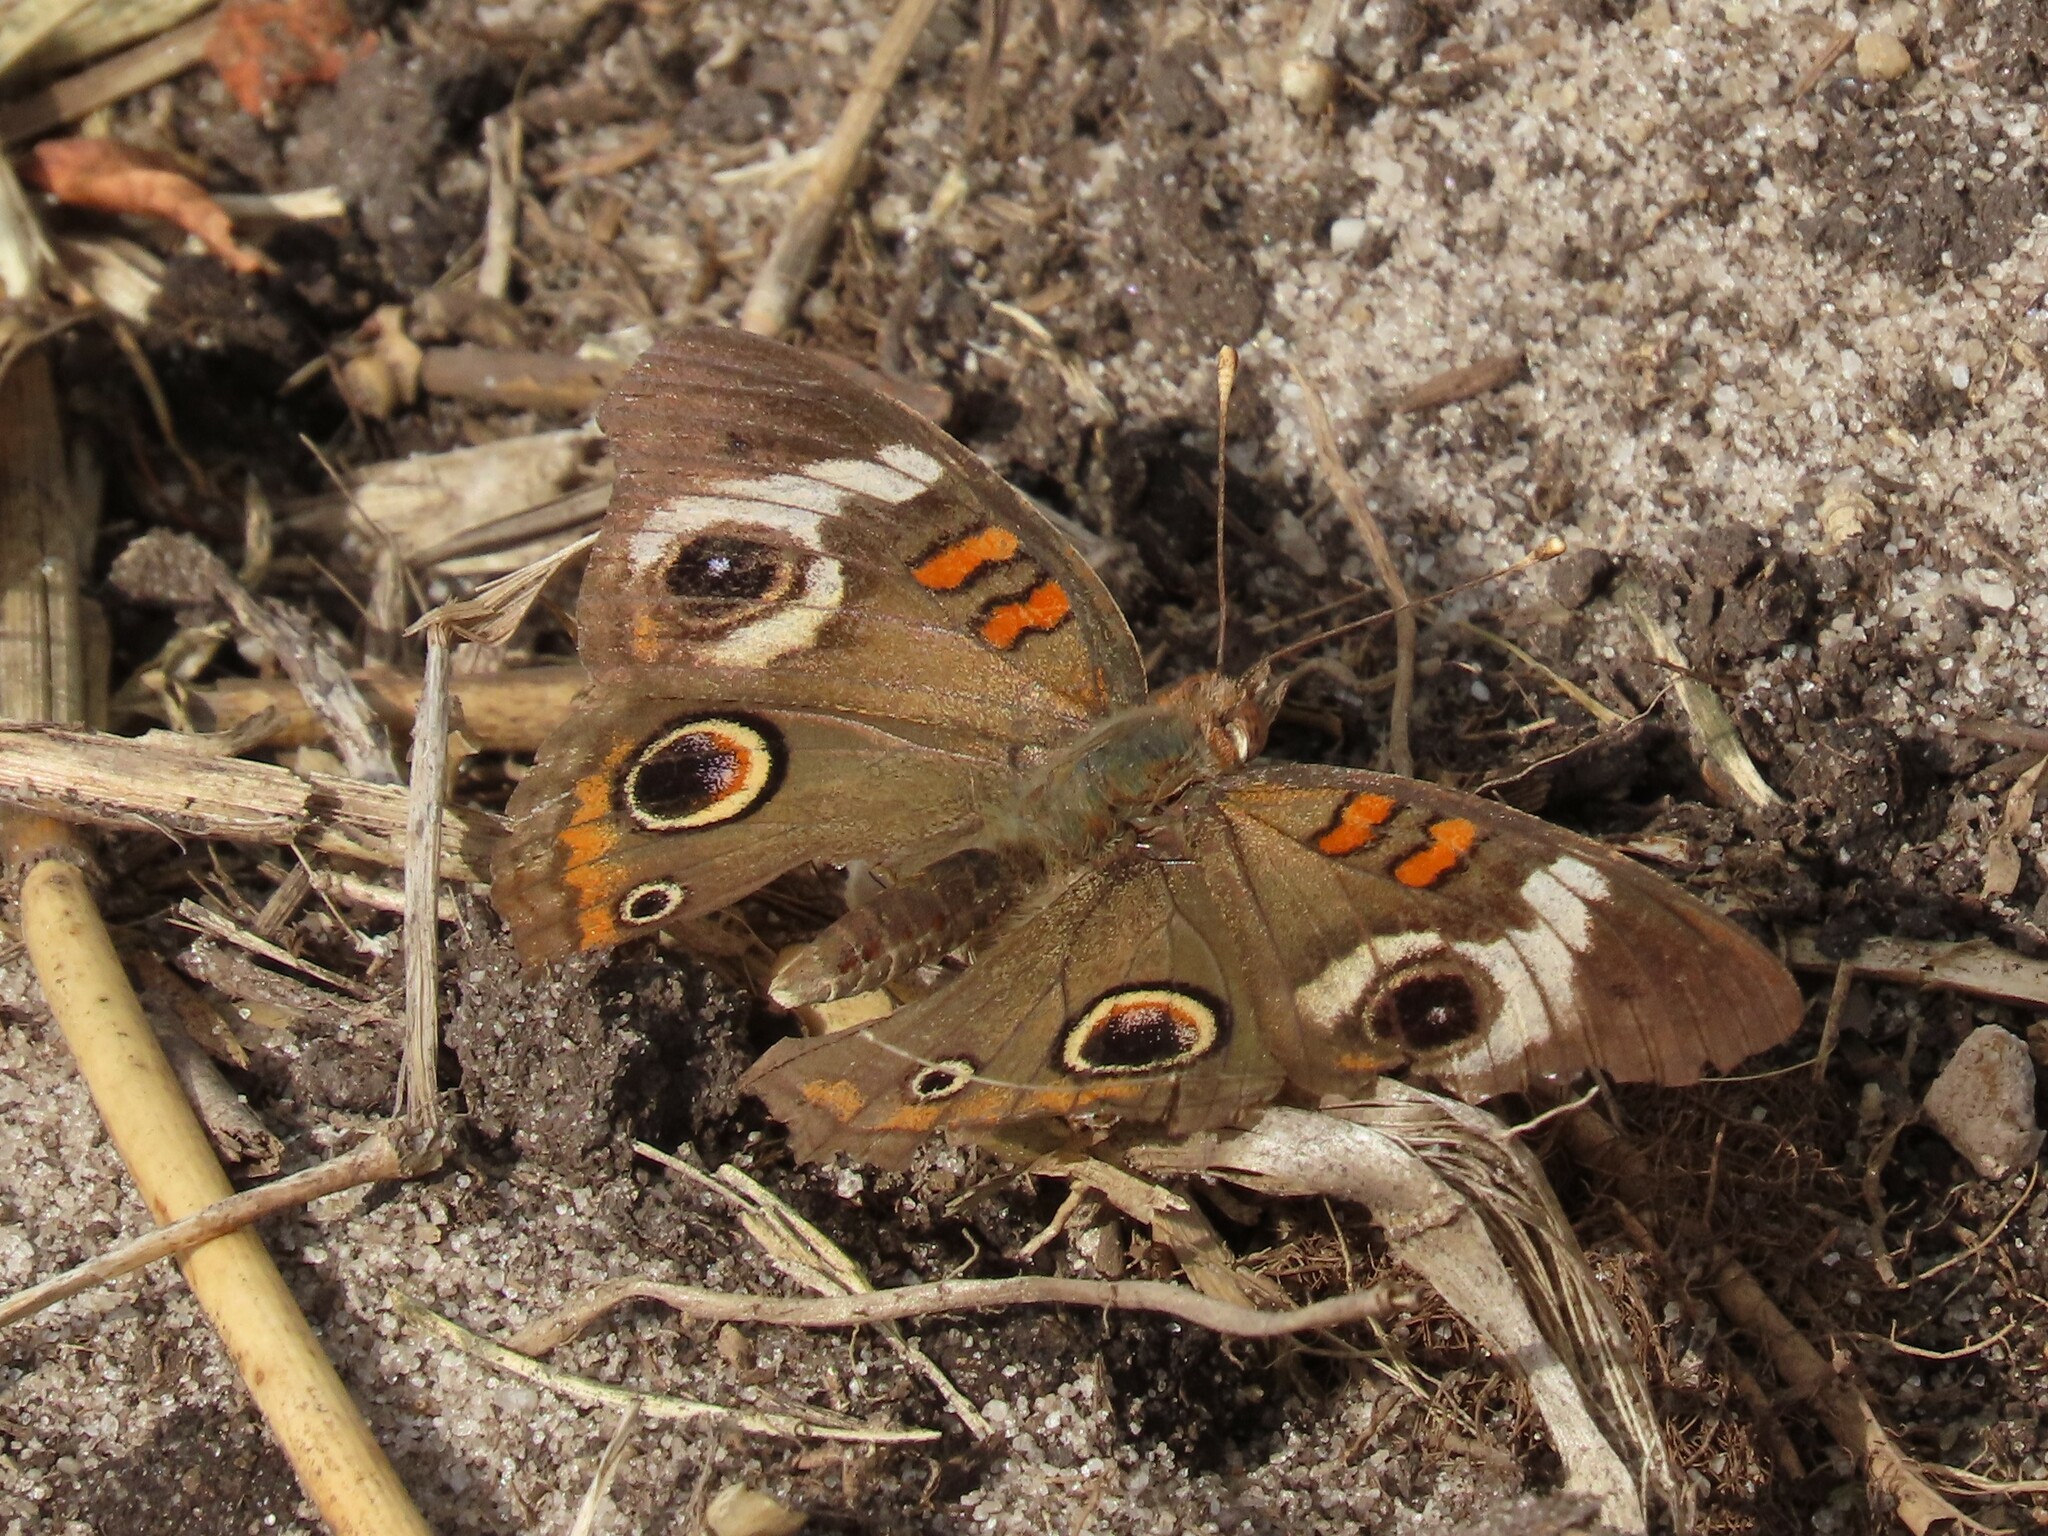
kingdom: Animalia
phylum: Arthropoda
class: Insecta
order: Lepidoptera
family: Nymphalidae
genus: Junonia
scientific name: Junonia coenia
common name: Common buckeye
